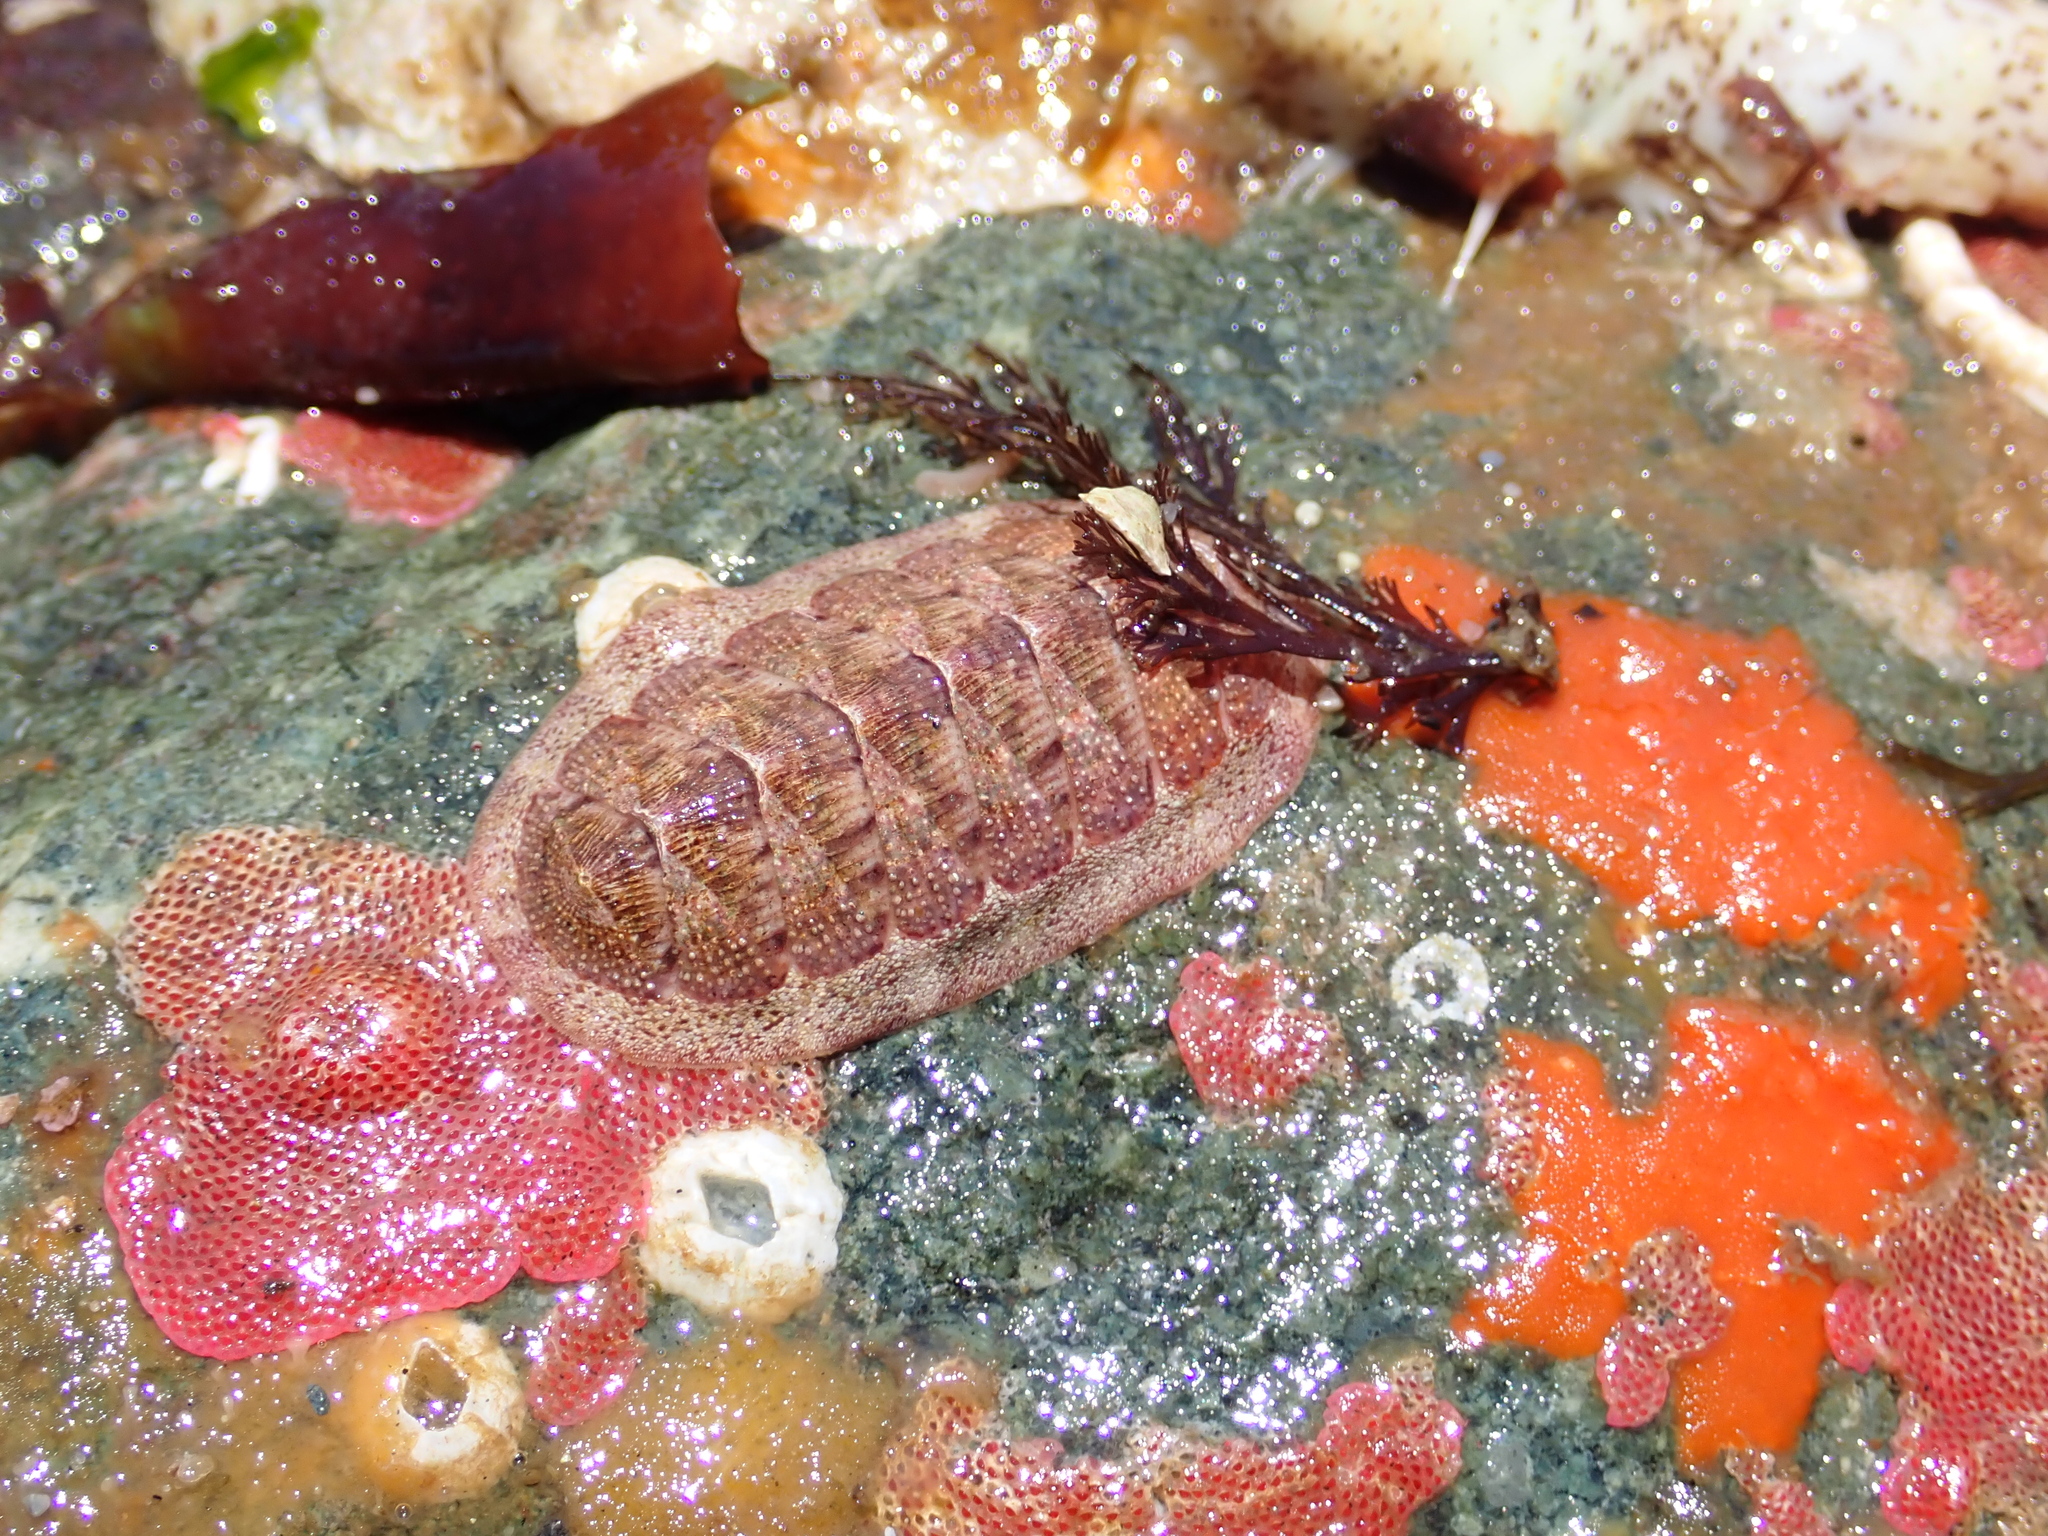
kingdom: Animalia
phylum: Mollusca
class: Polyplacophora
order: Chitonida
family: Ischnochitonidae
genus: Lepidozona
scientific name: Lepidozona mertensii
